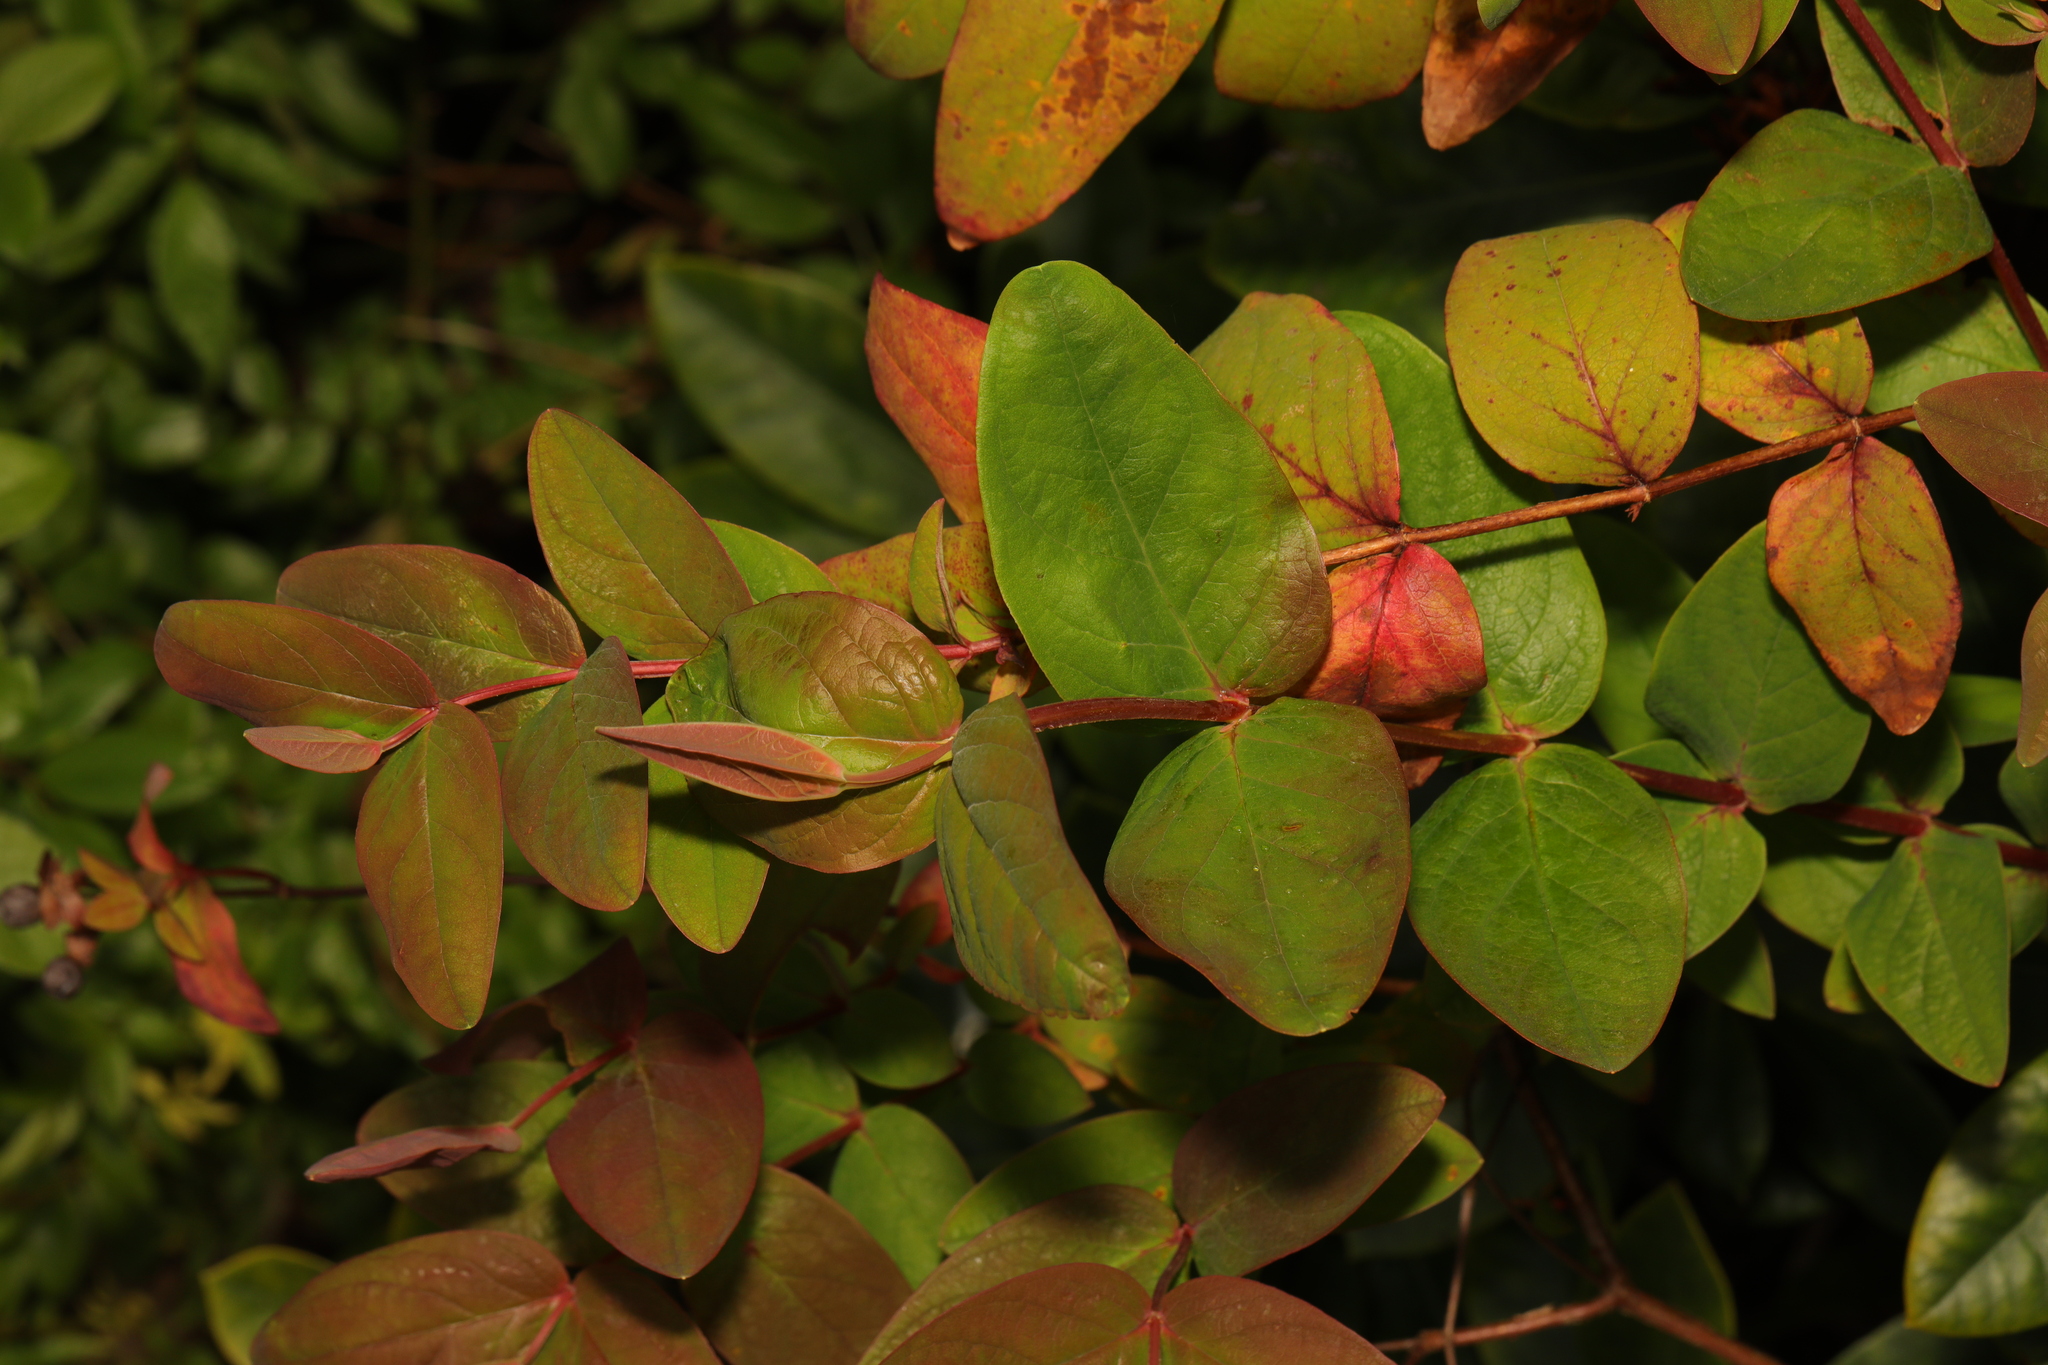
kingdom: Plantae
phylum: Tracheophyta
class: Magnoliopsida
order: Malpighiales
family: Hypericaceae
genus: Hypericum
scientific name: Hypericum androsaemum
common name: Sweet-amber
